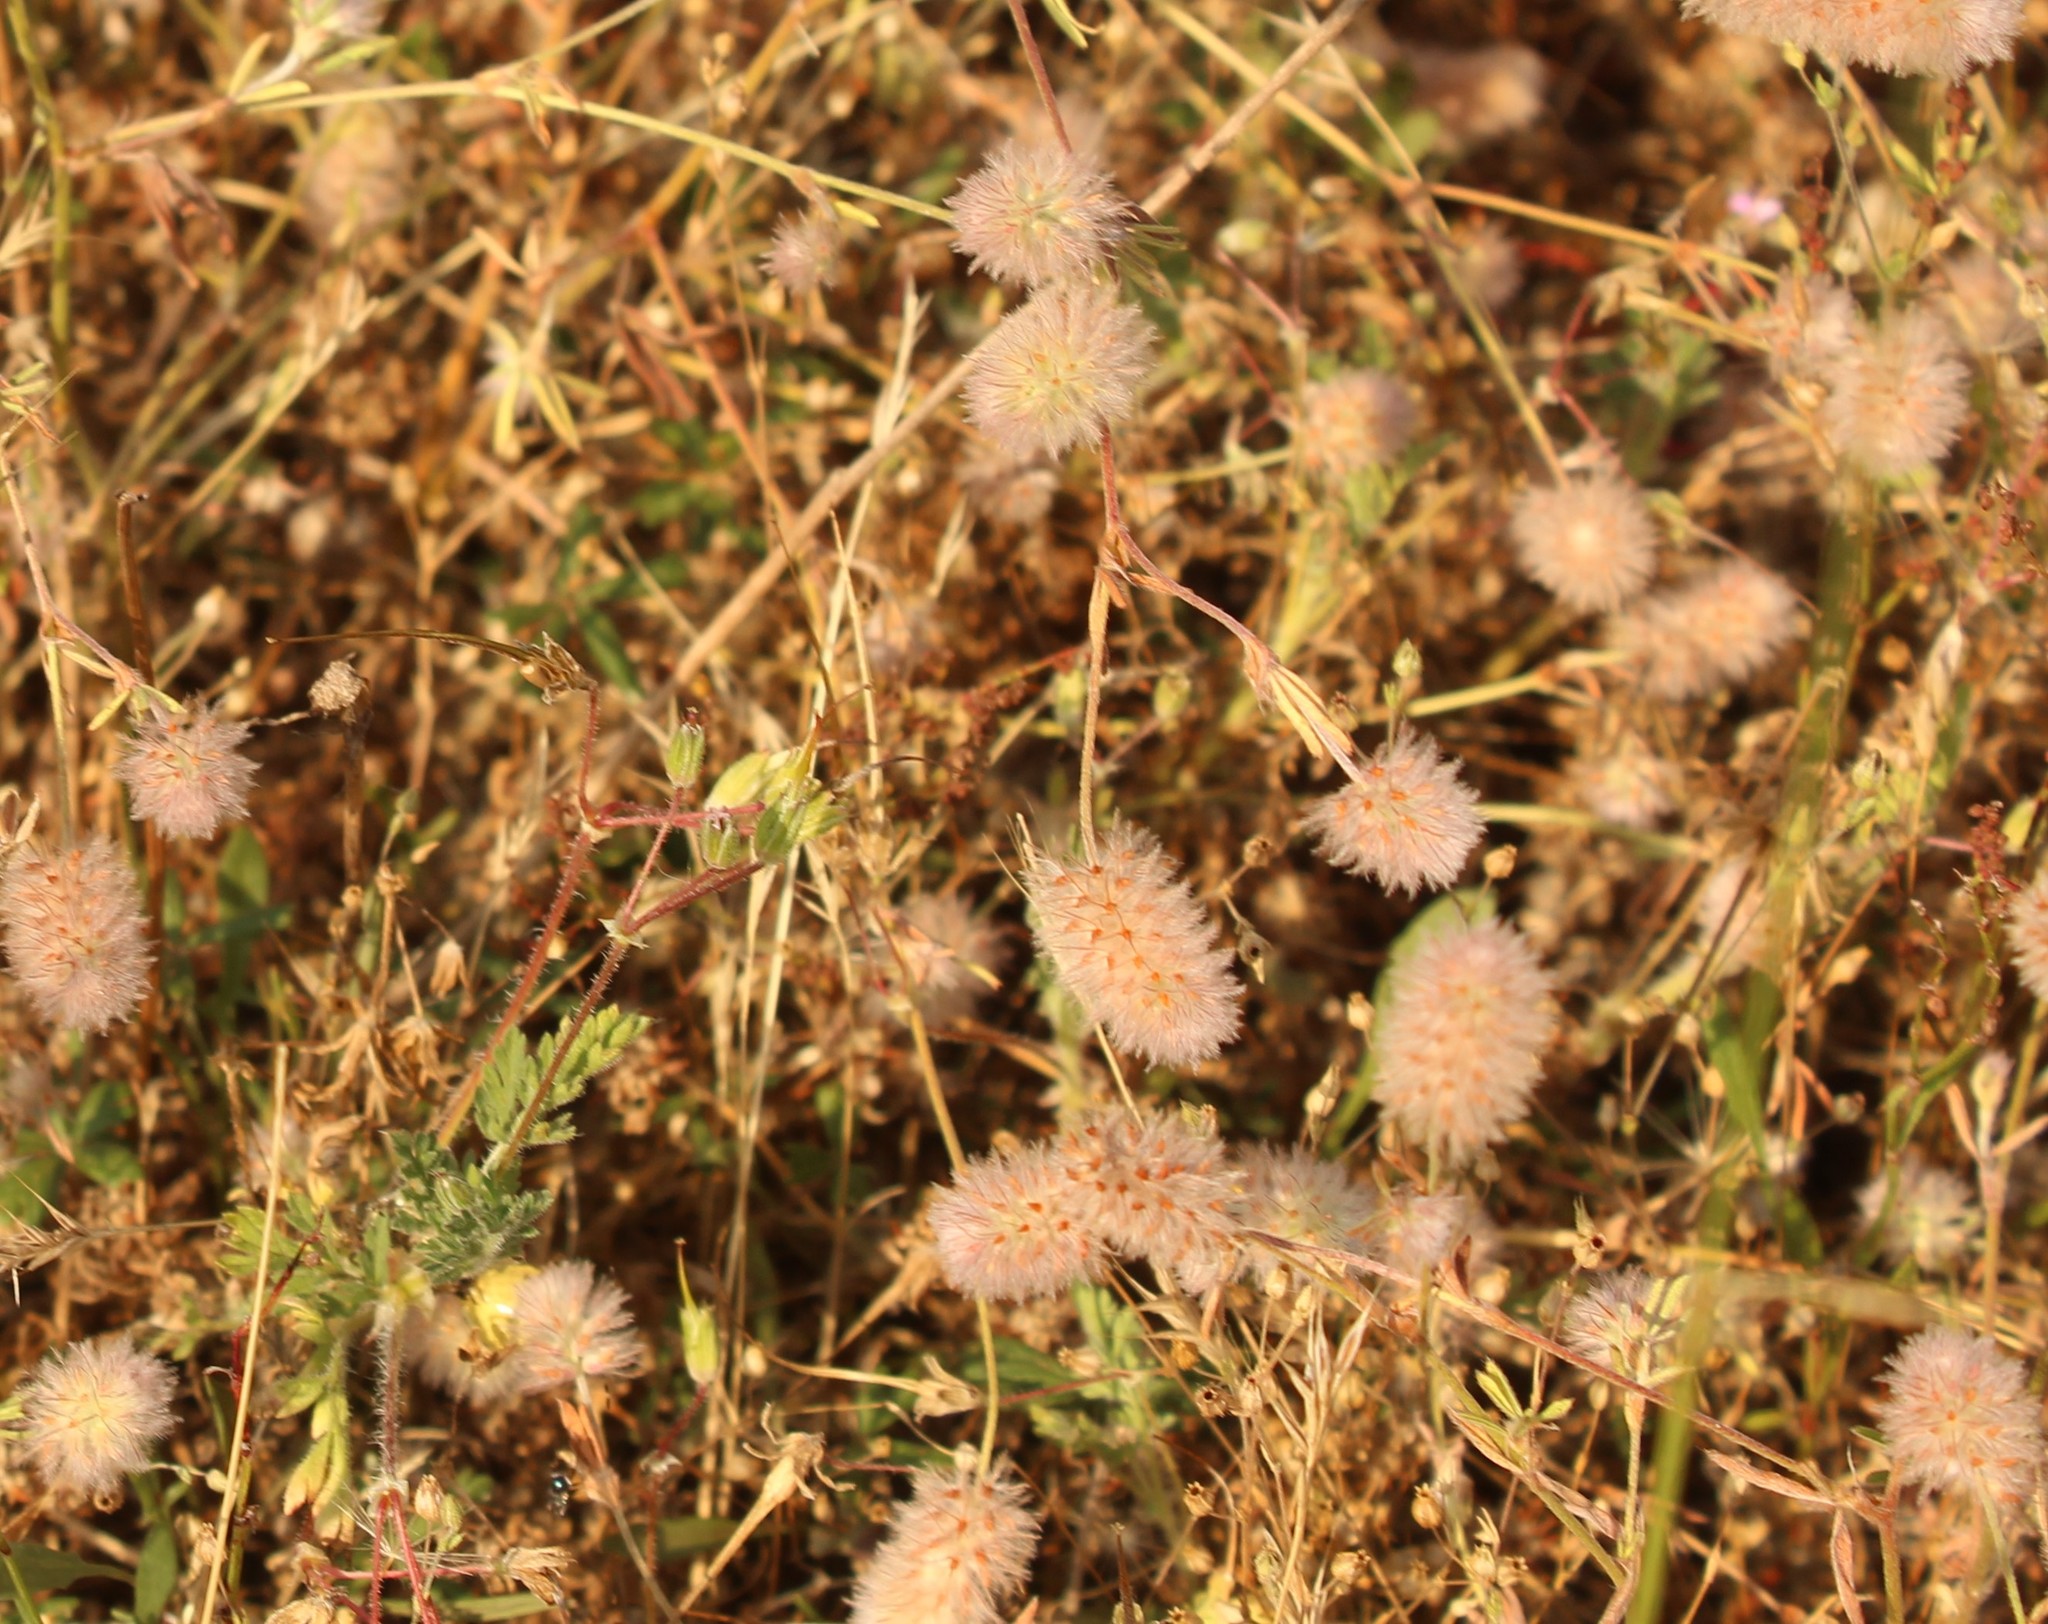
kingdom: Plantae
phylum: Tracheophyta
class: Magnoliopsida
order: Fabales
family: Fabaceae
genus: Trifolium
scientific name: Trifolium arvense
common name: Hare's-foot clover
